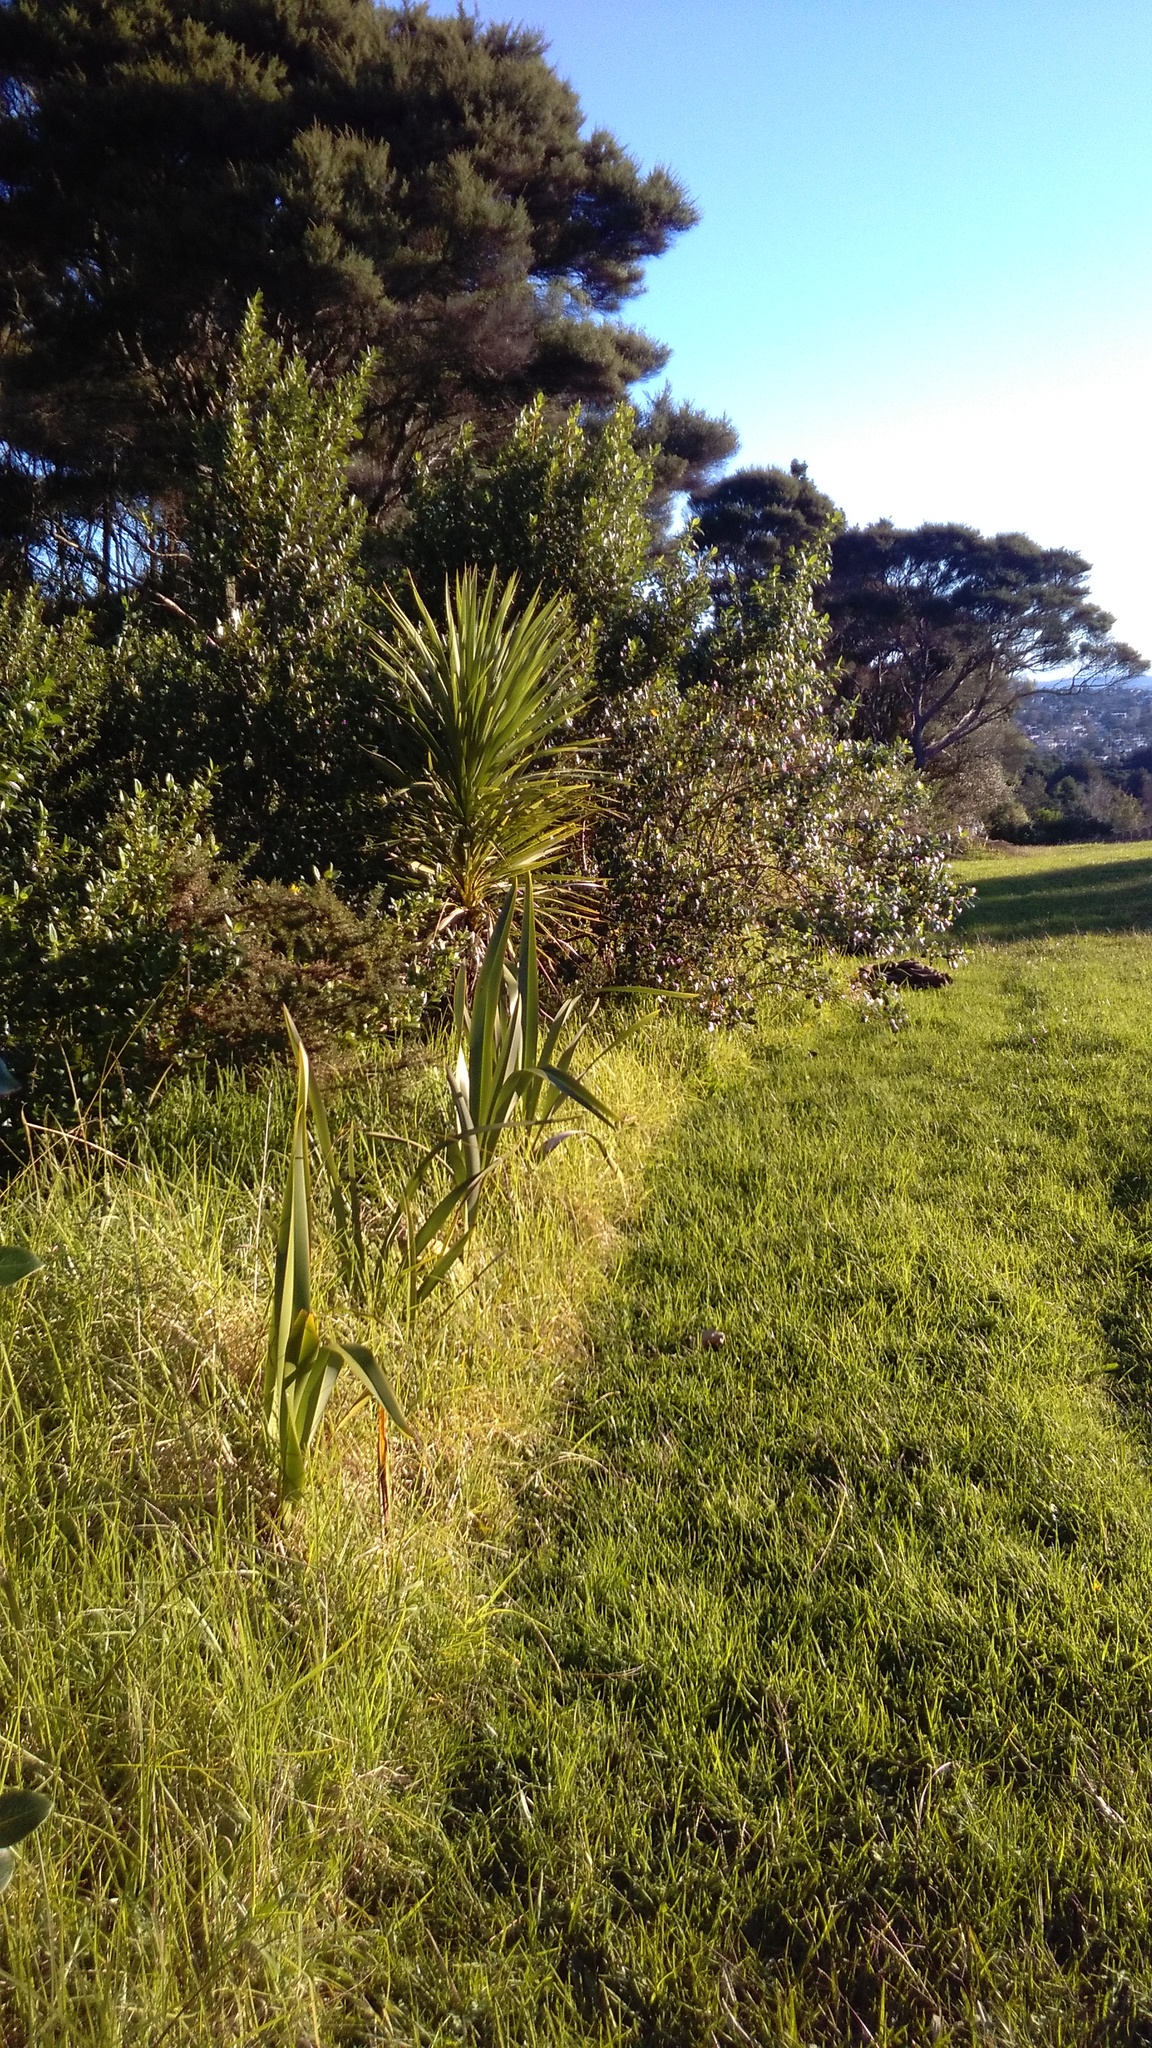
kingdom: Plantae
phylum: Tracheophyta
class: Liliopsida
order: Poales
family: Poaceae
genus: Cenchrus
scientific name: Cenchrus clandestinus
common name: Kikuyugrass
